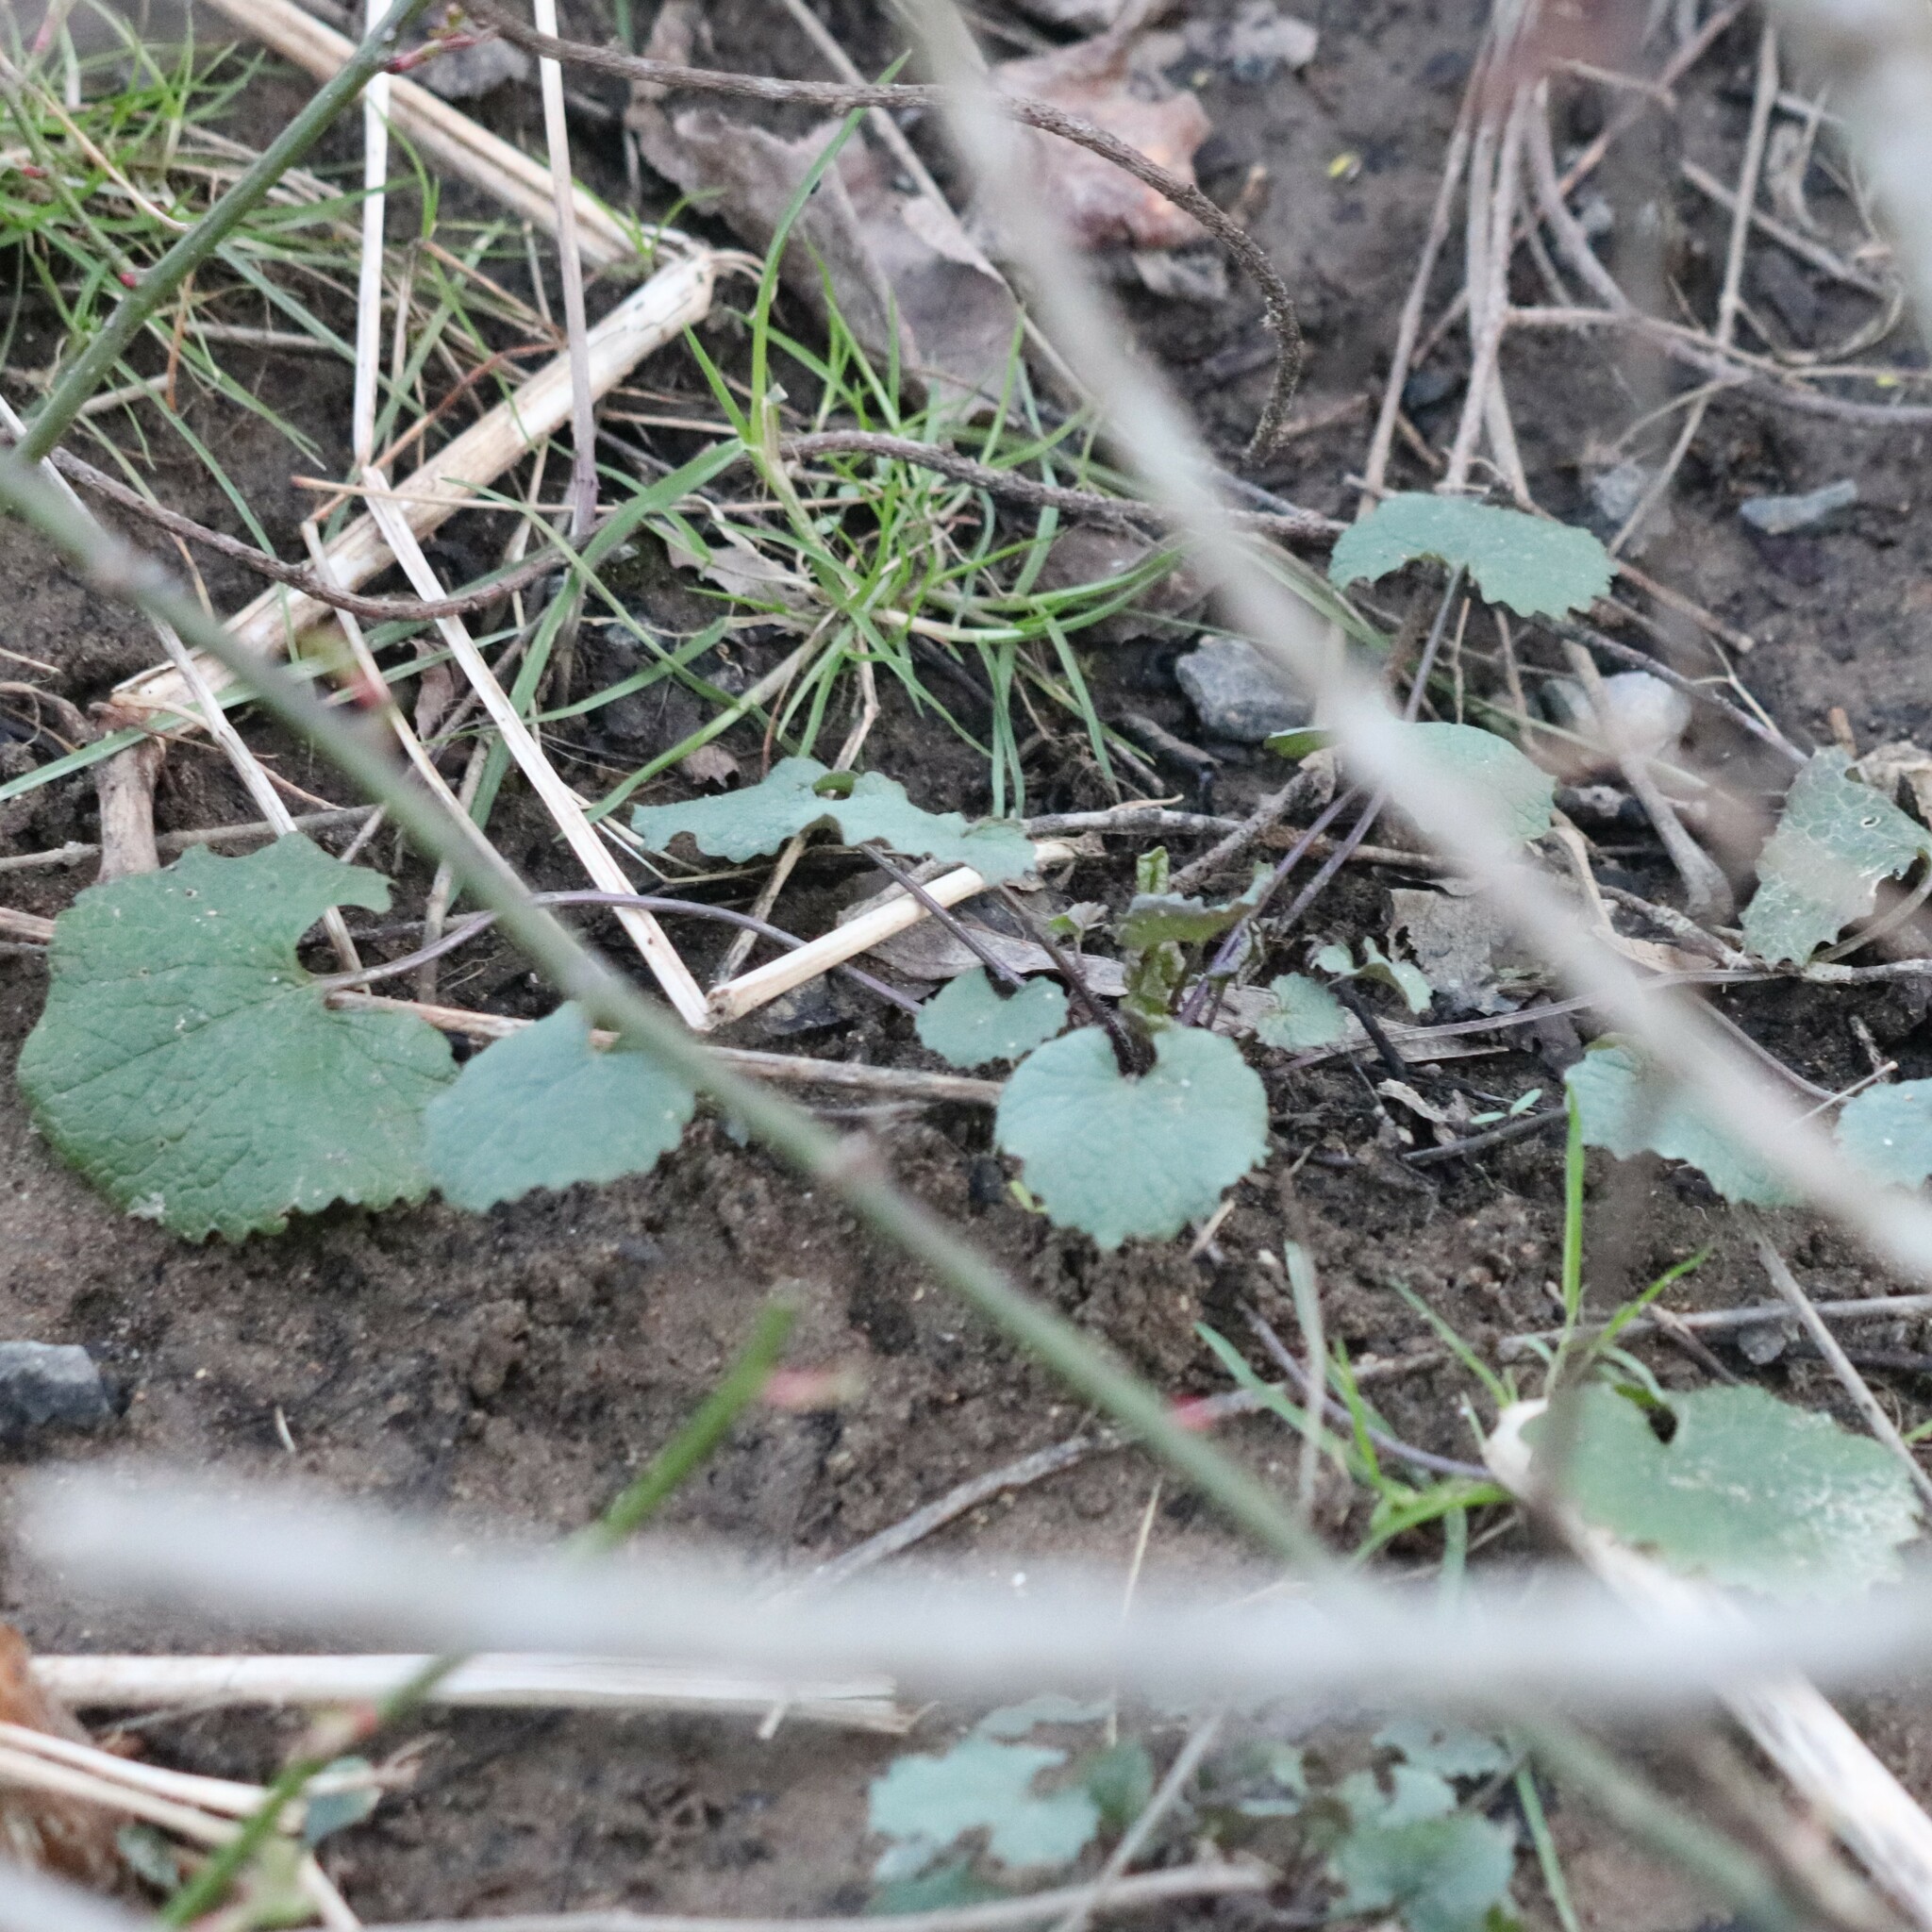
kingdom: Plantae
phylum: Tracheophyta
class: Magnoliopsida
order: Brassicales
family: Brassicaceae
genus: Alliaria
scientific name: Alliaria petiolata
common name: Garlic mustard
